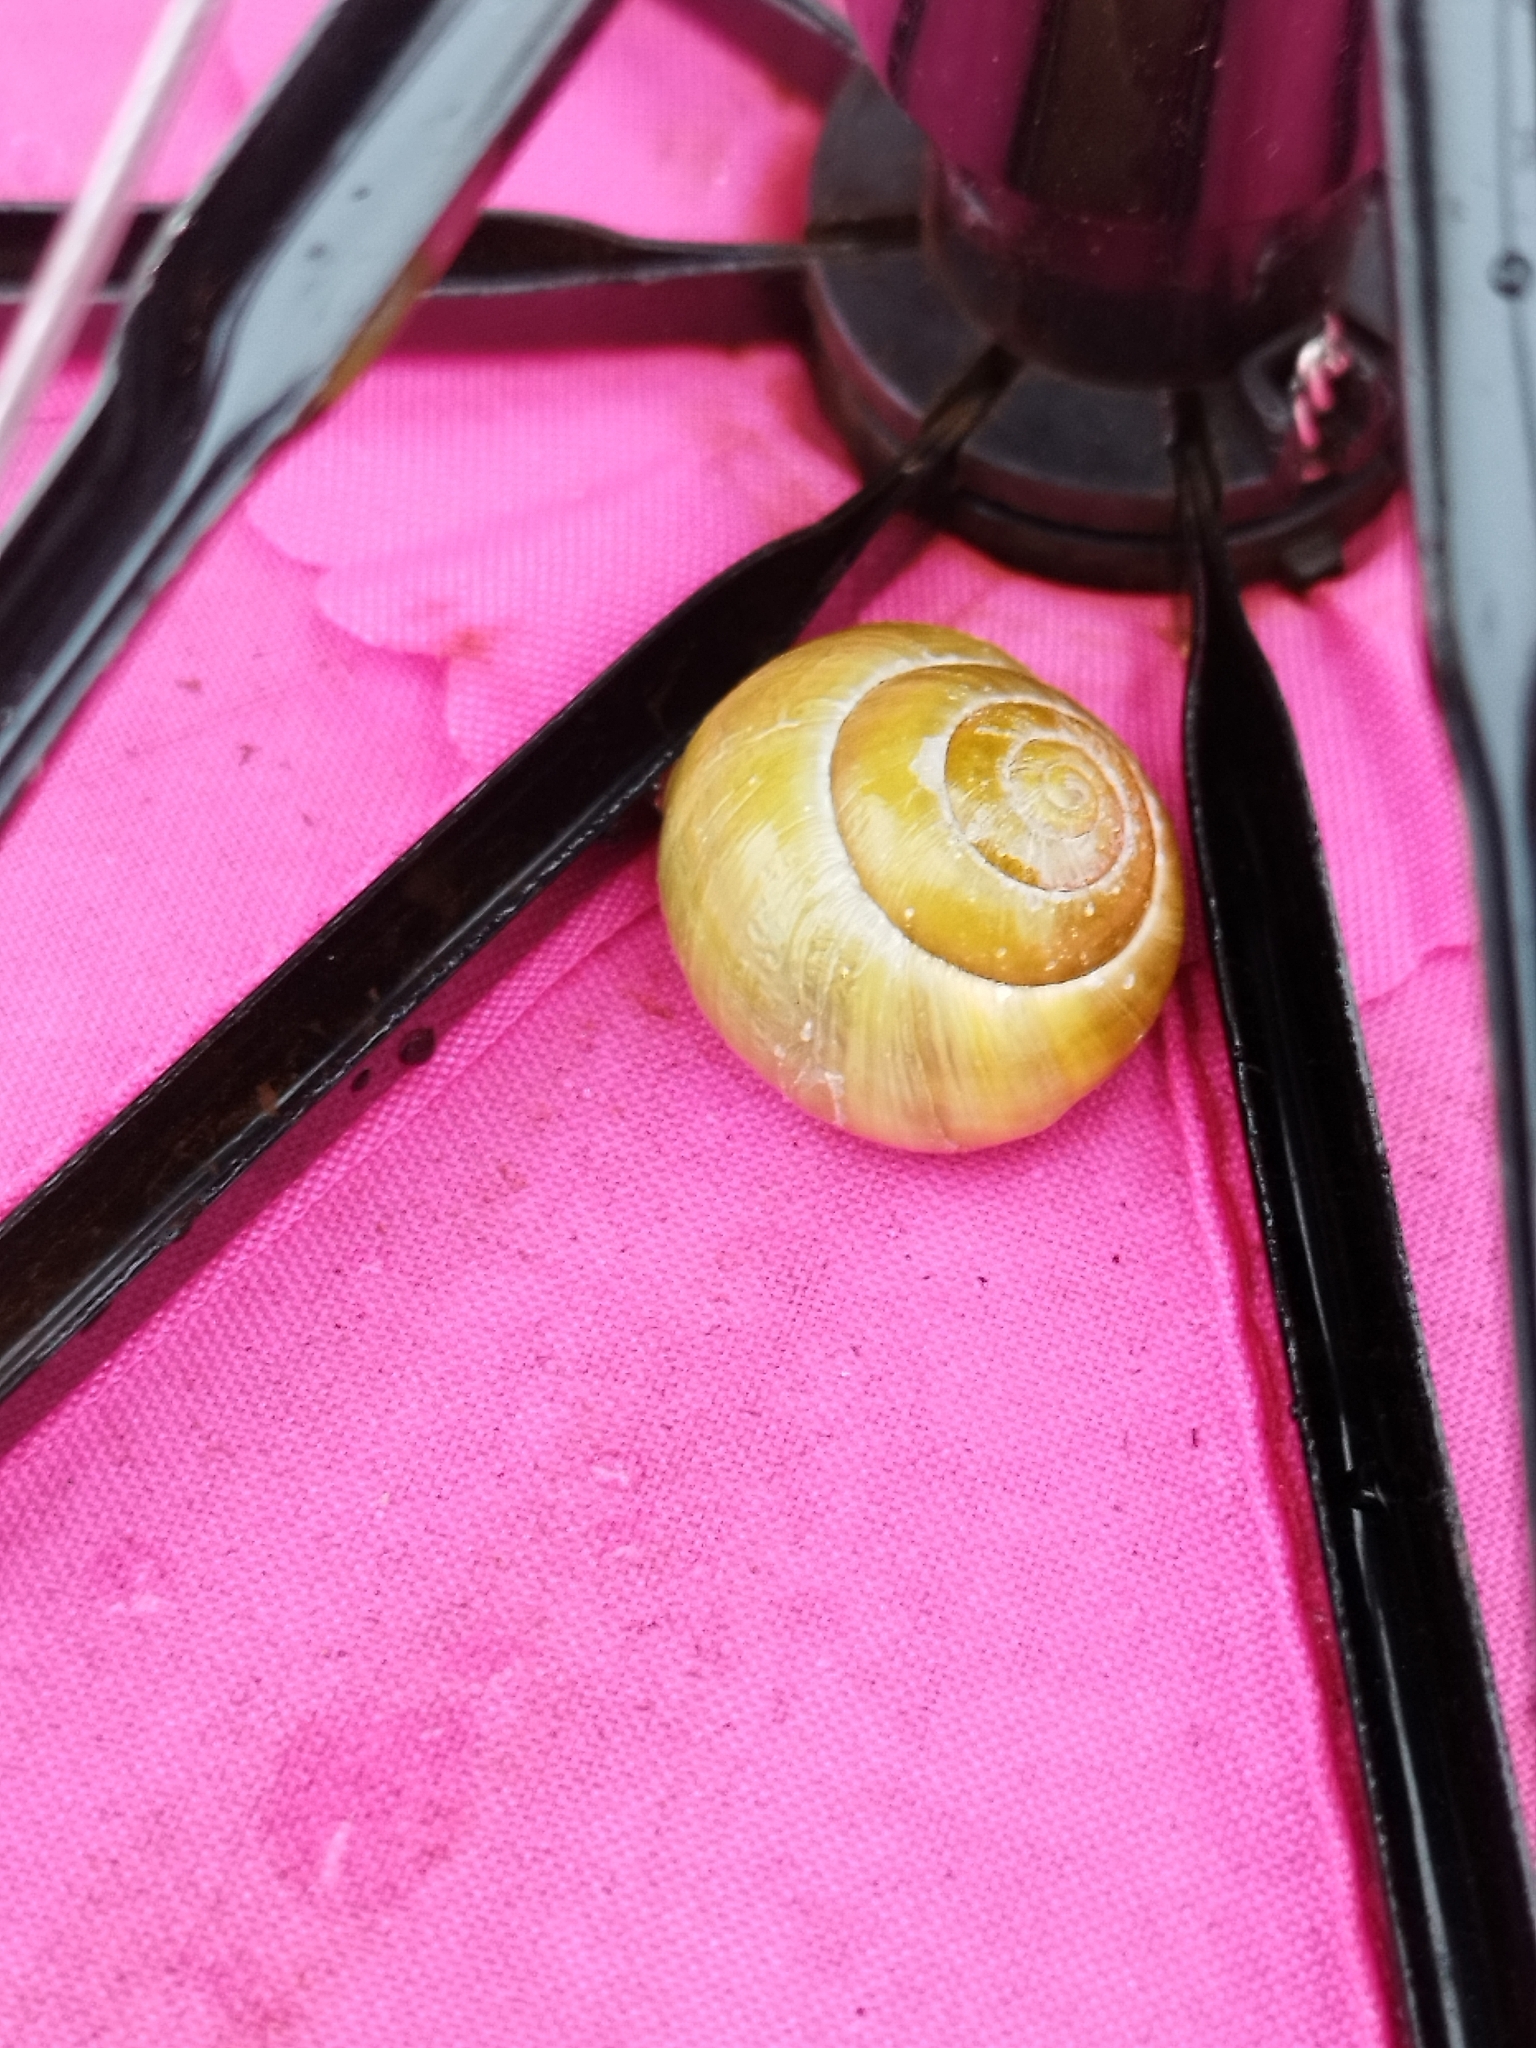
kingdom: Animalia
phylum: Mollusca
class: Gastropoda
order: Stylommatophora
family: Helicidae
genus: Cepaea
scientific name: Cepaea hortensis
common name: White-lip gardensnail
